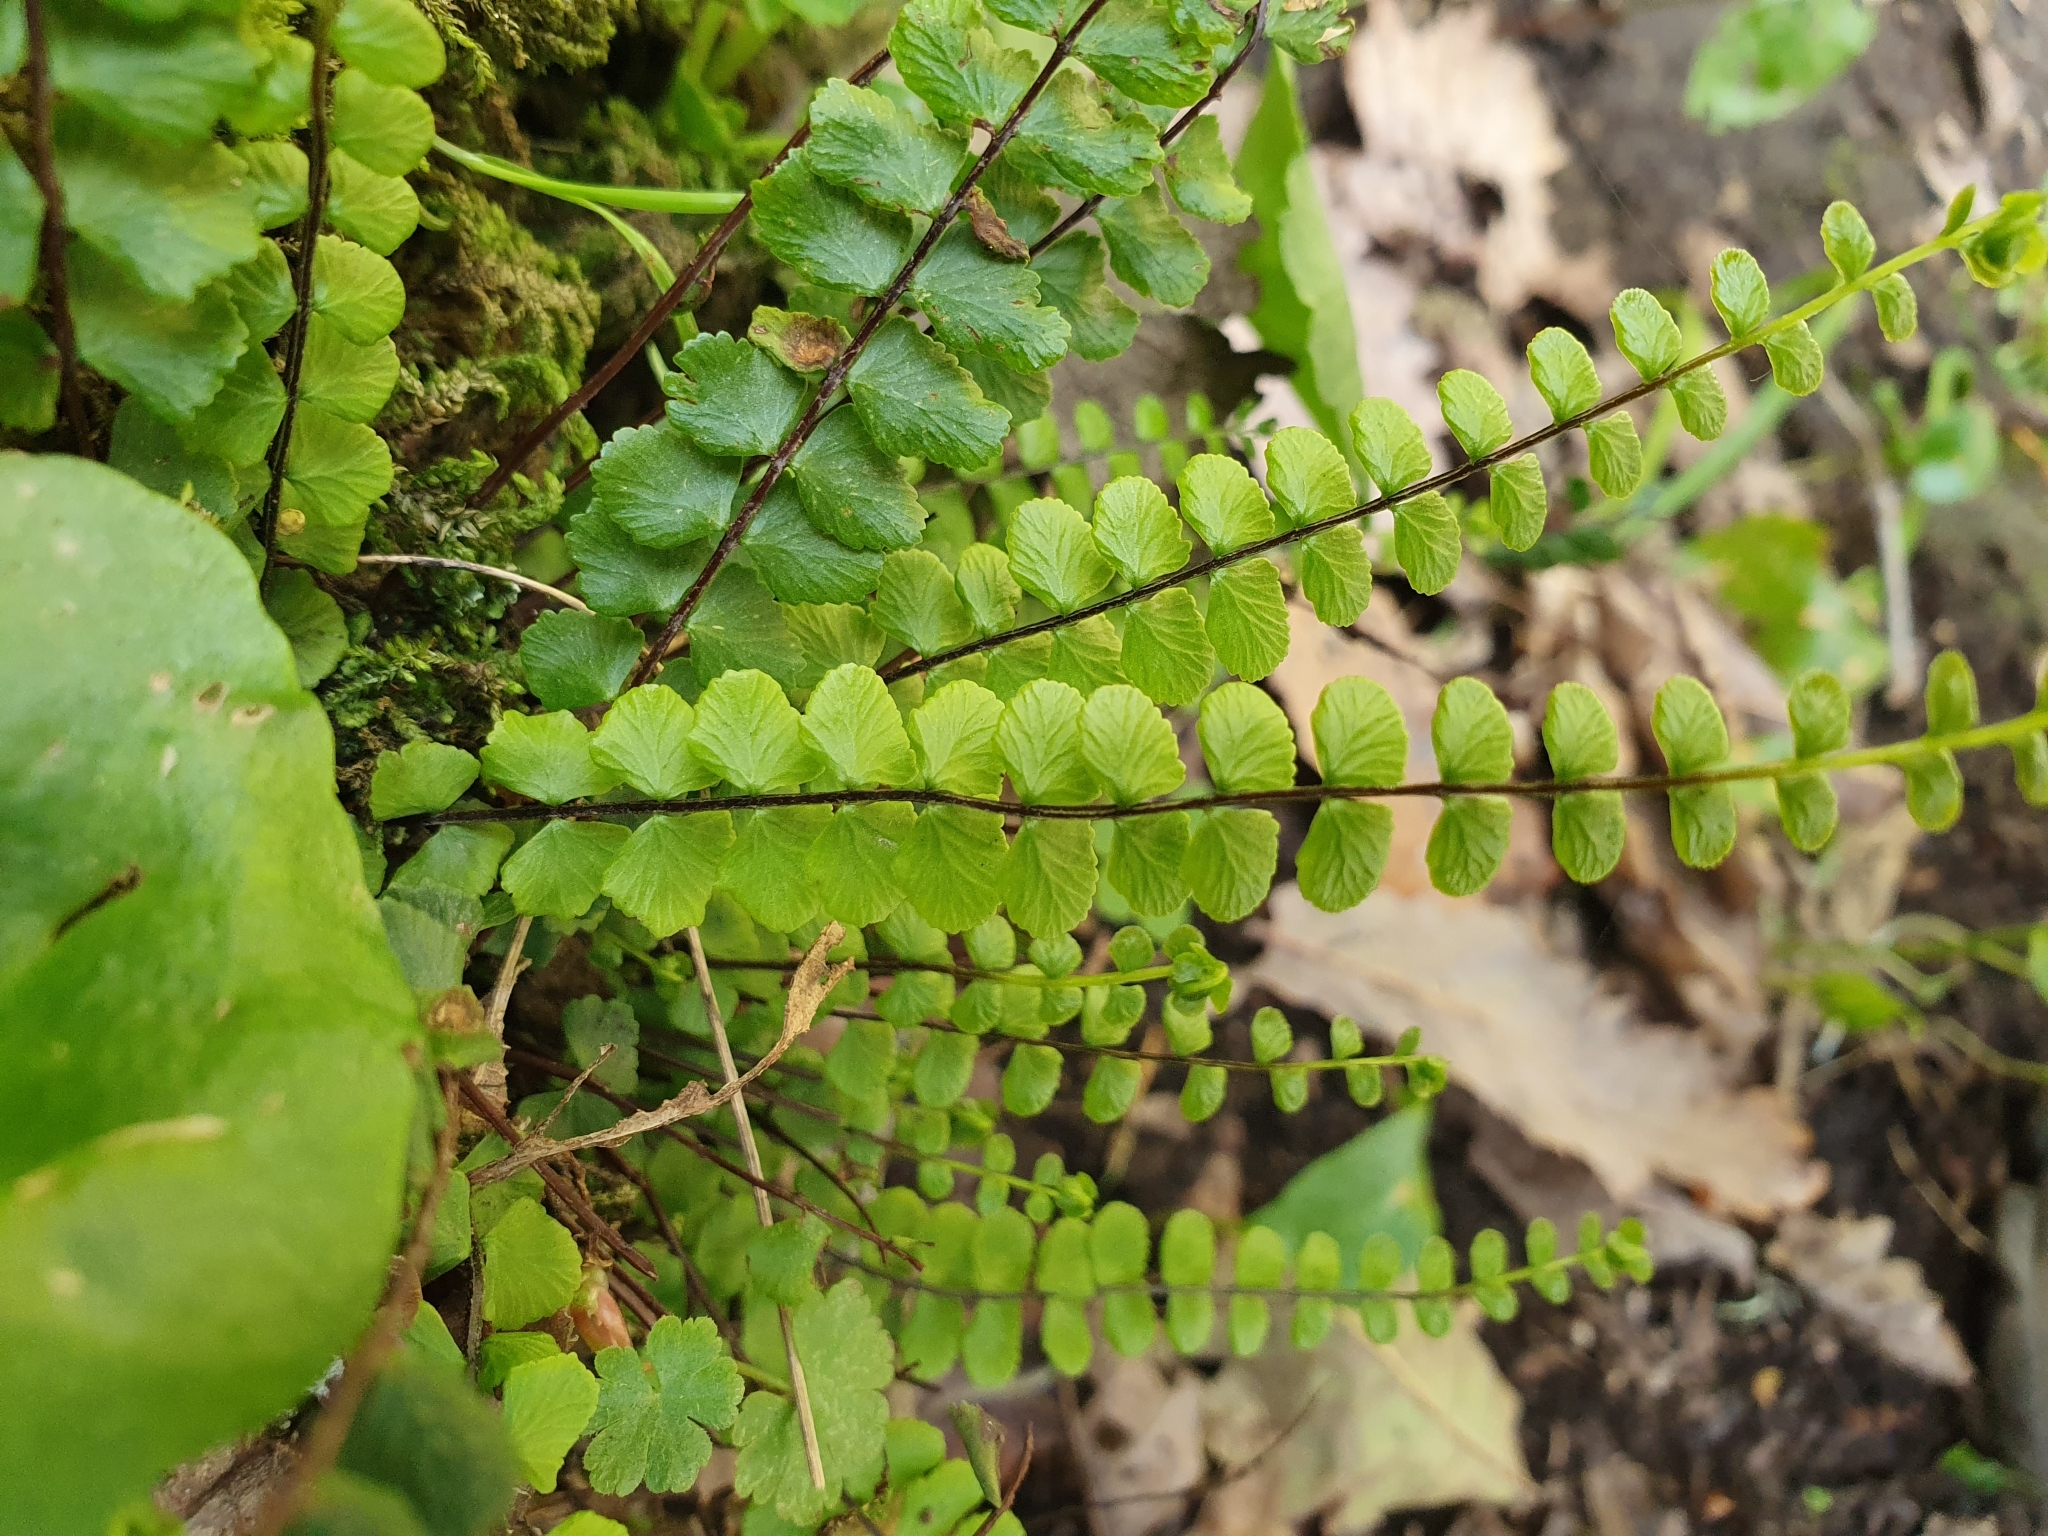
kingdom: Plantae
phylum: Tracheophyta
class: Polypodiopsida
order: Polypodiales
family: Aspleniaceae
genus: Asplenium
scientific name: Asplenium trichomanes
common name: Maidenhair spleenwort
